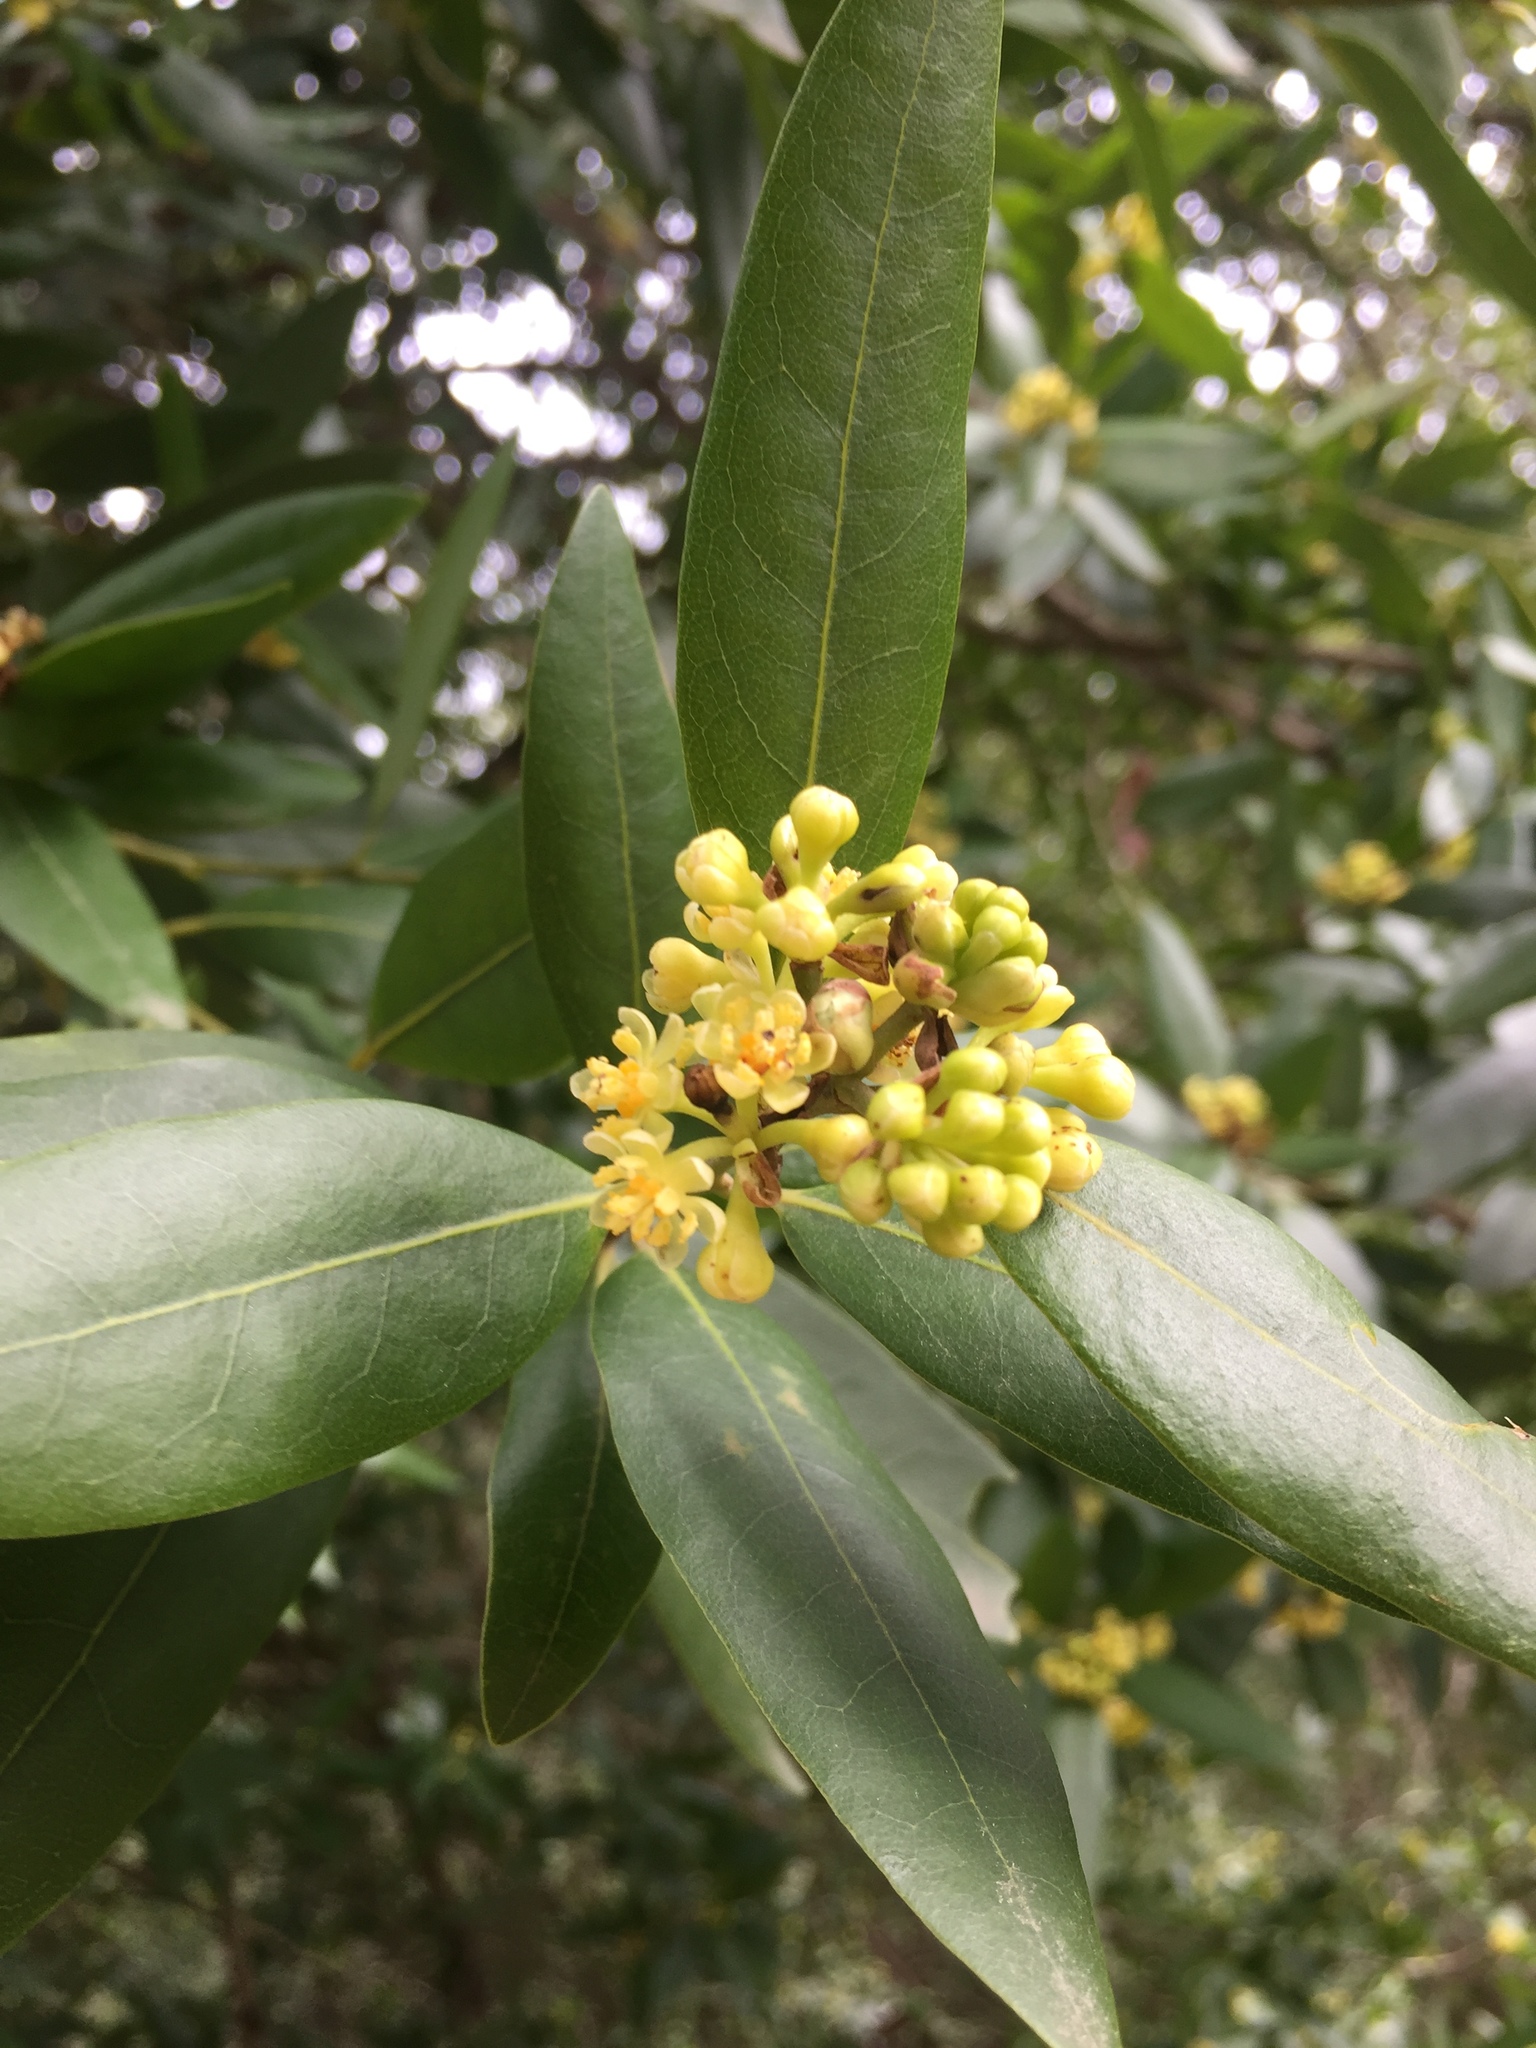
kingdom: Plantae
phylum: Tracheophyta
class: Magnoliopsida
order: Laurales
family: Lauraceae
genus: Umbellularia
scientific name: Umbellularia californica
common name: California bay
